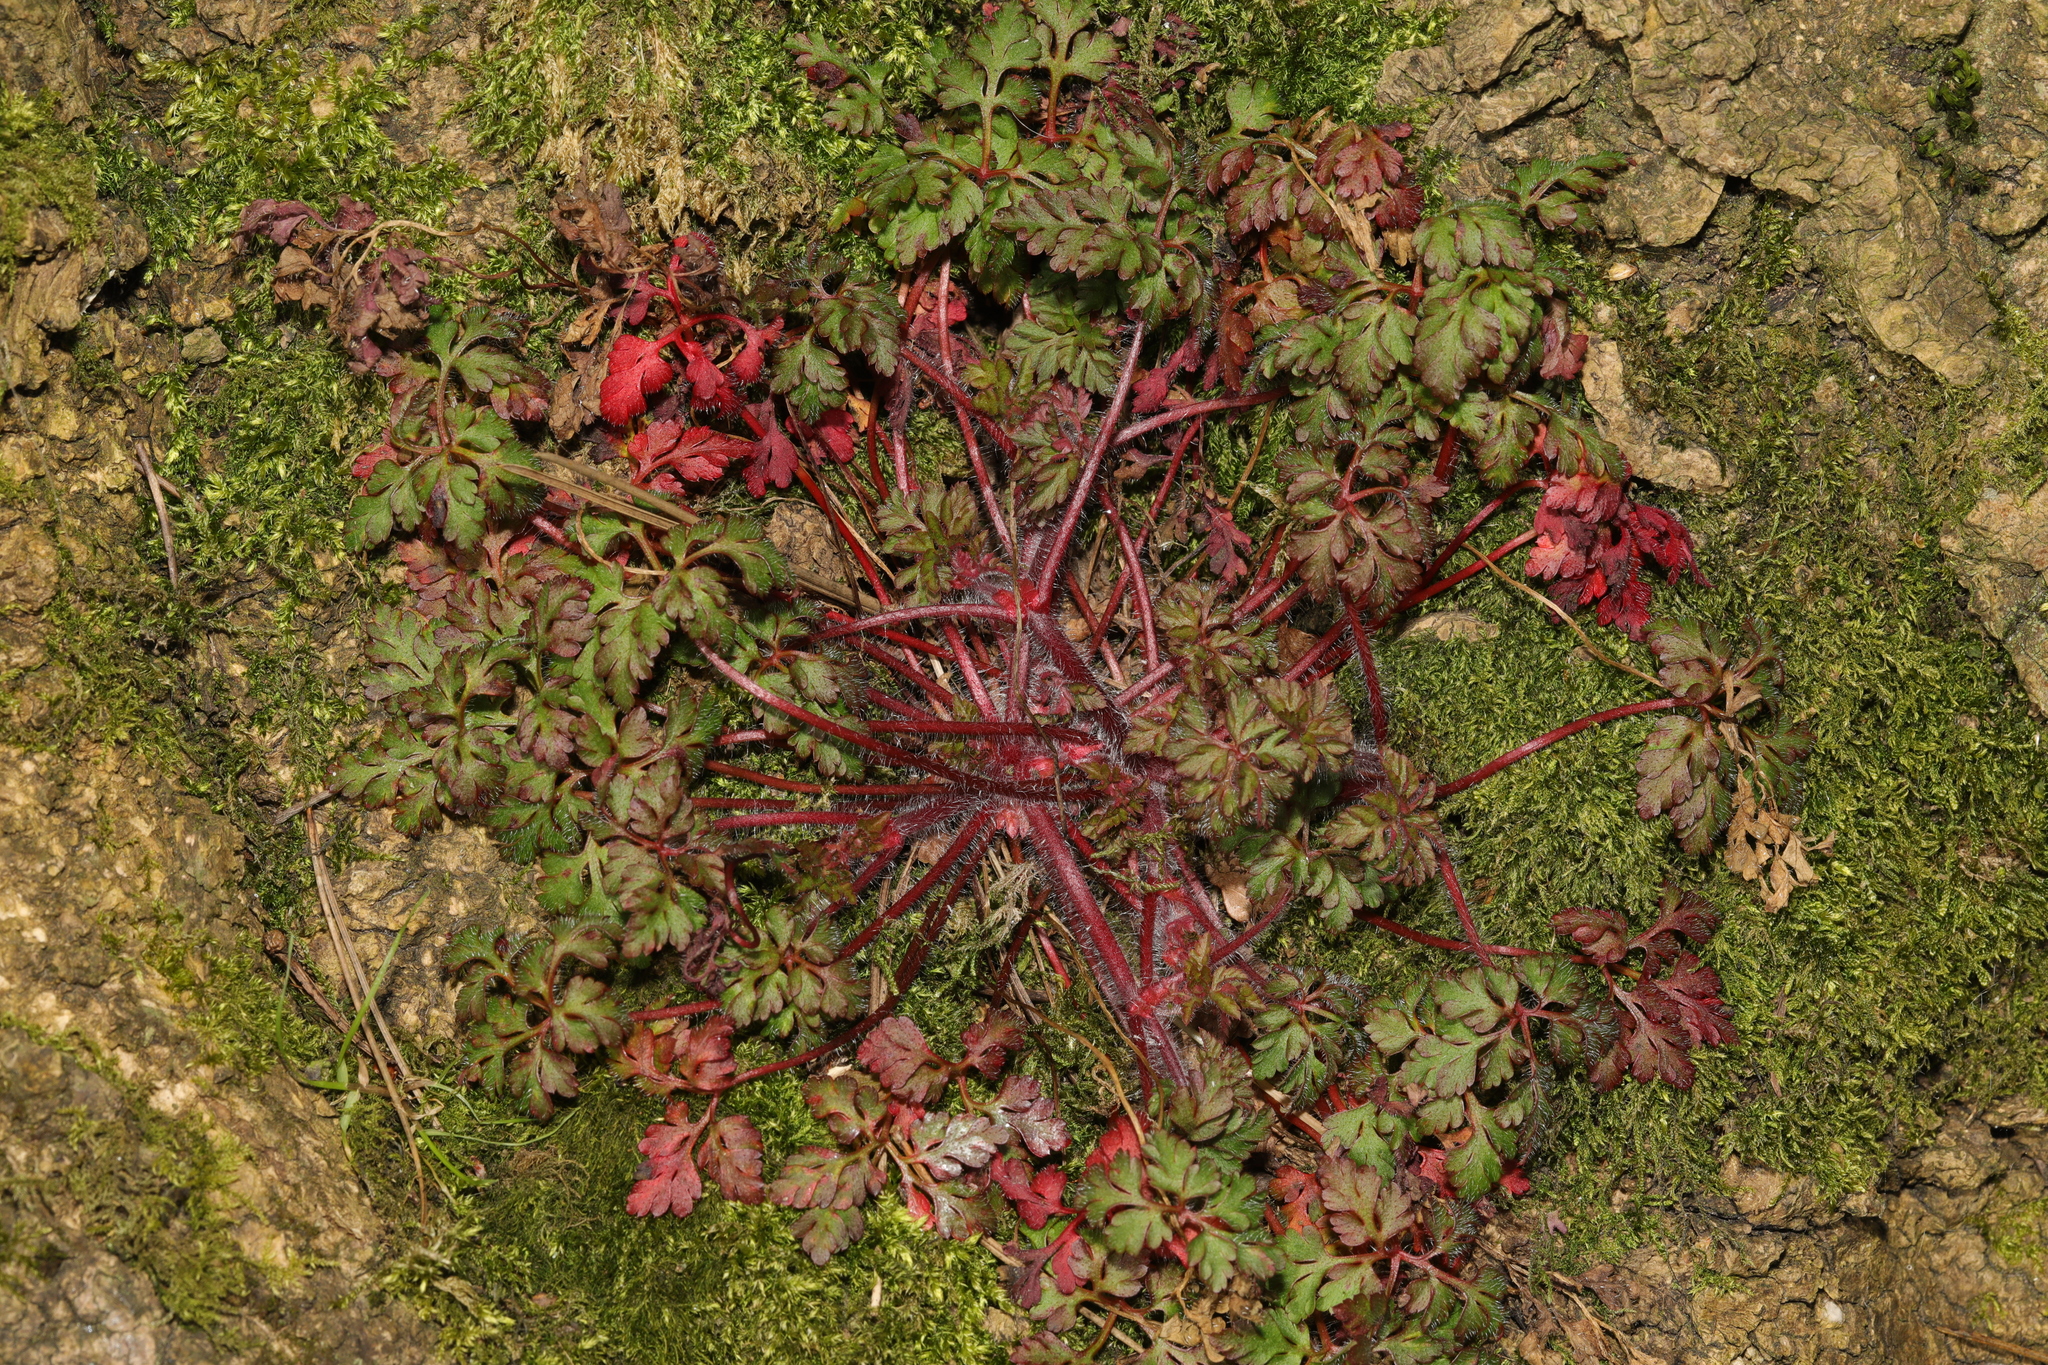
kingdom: Plantae
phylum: Tracheophyta
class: Magnoliopsida
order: Geraniales
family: Geraniaceae
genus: Geranium
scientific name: Geranium robertianum
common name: Herb-robert
